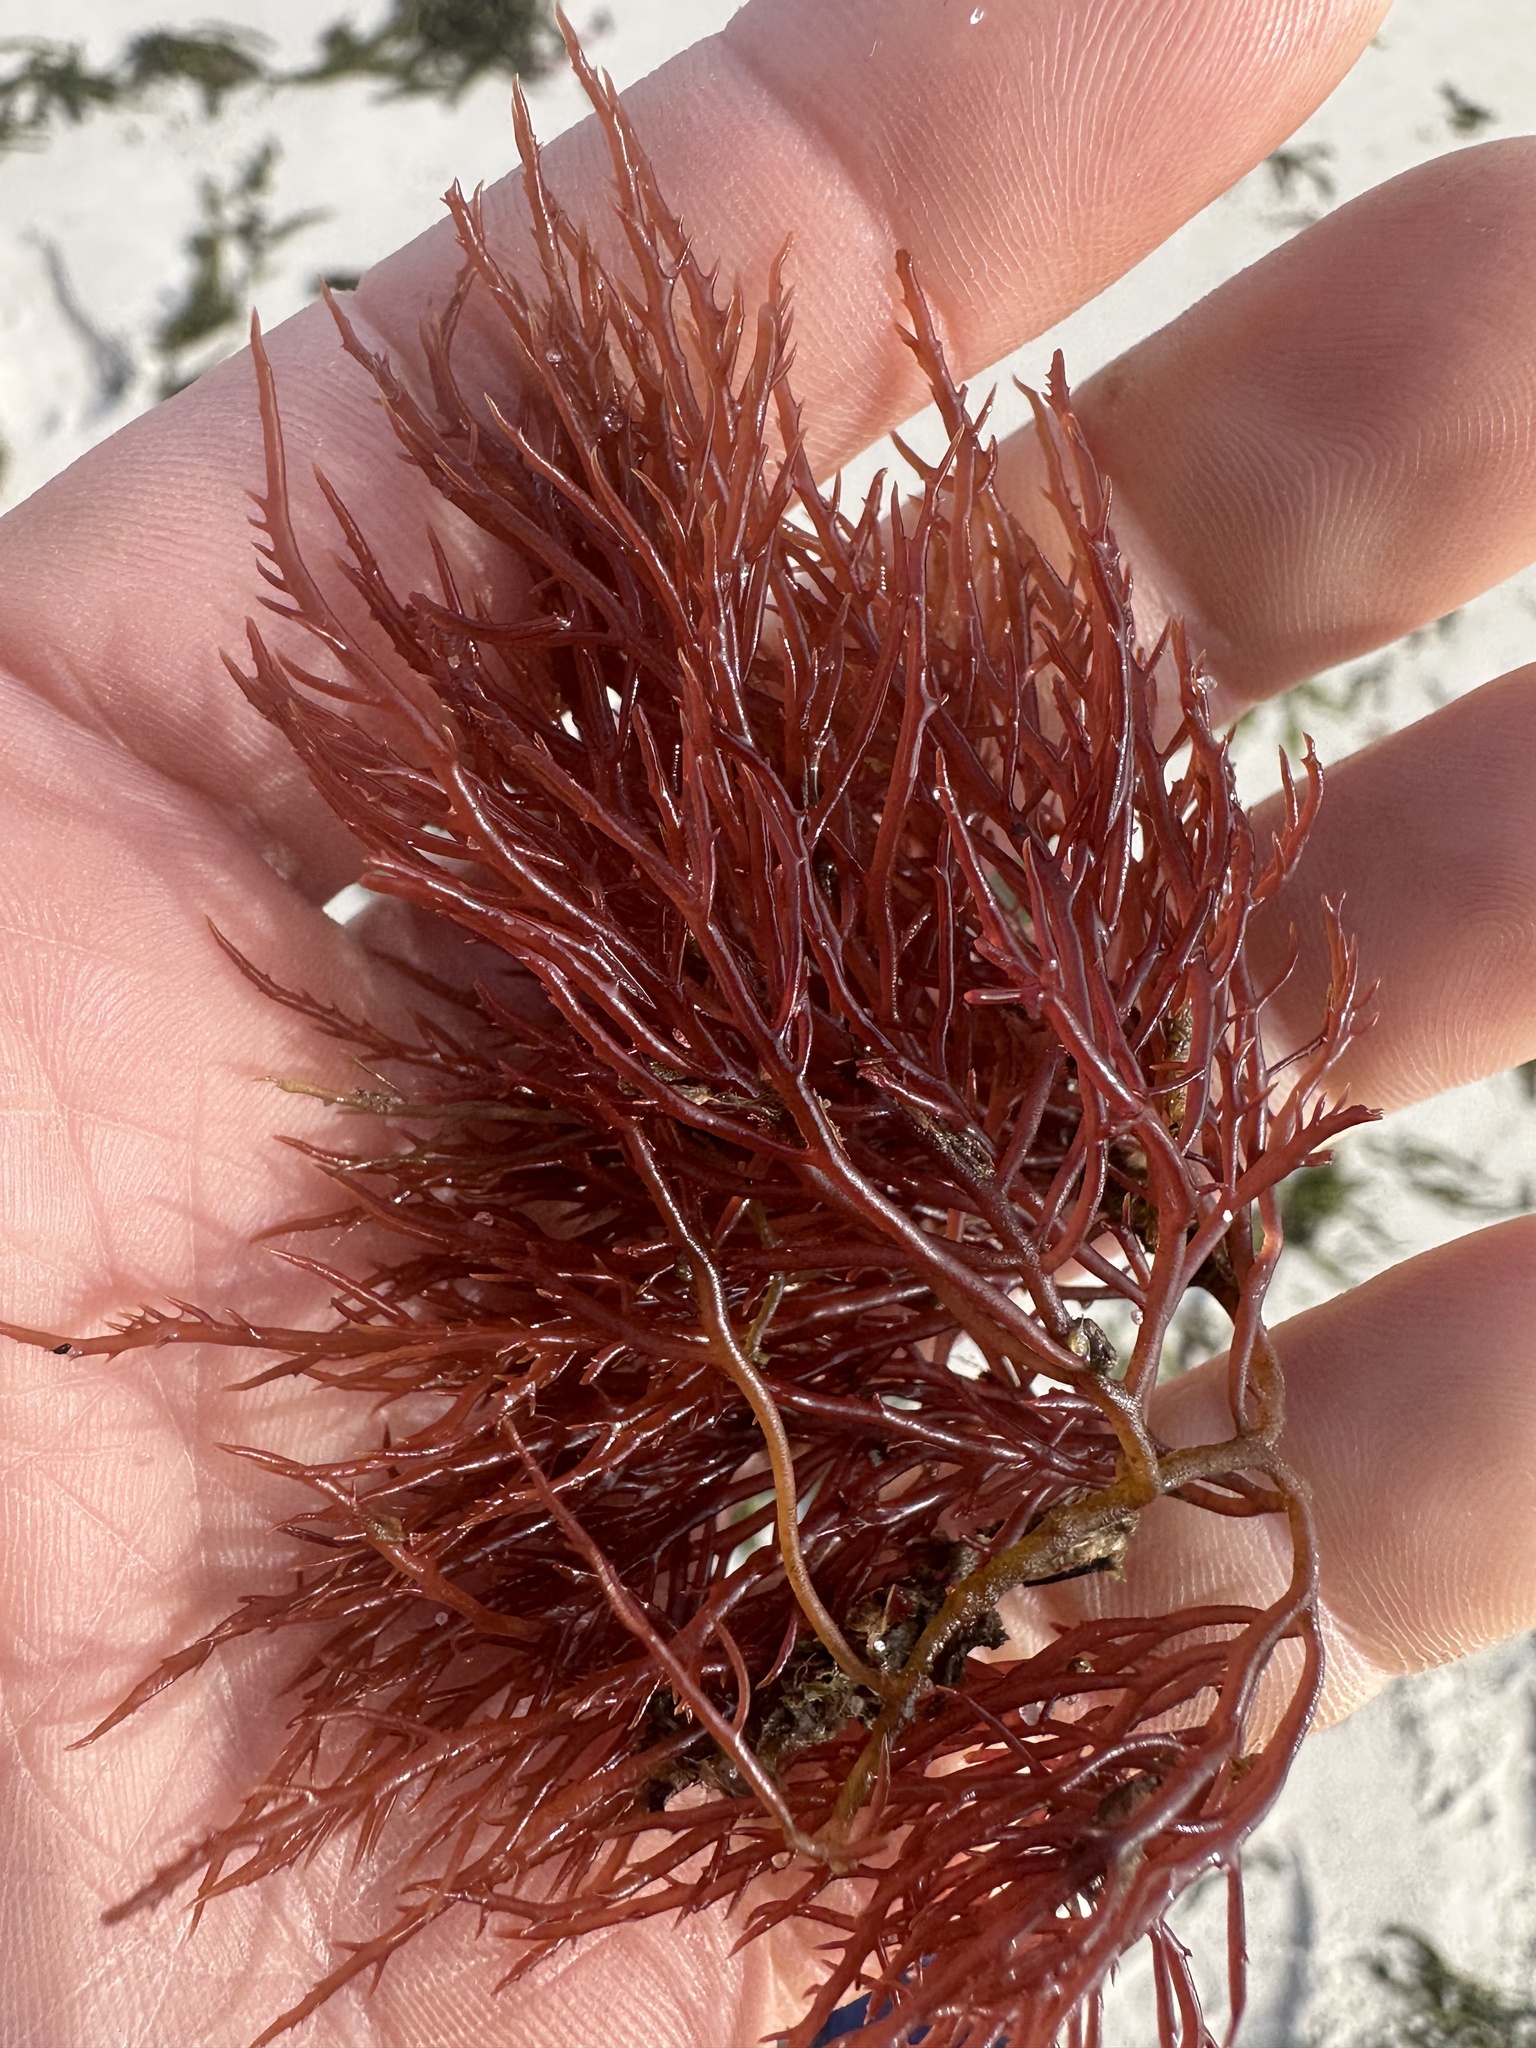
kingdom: Plantae
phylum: Rhodophyta
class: Florideophyceae
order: Gigartinales
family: Solieriaceae
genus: Agardhiella
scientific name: Agardhiella subulata
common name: Agardh's red weed
